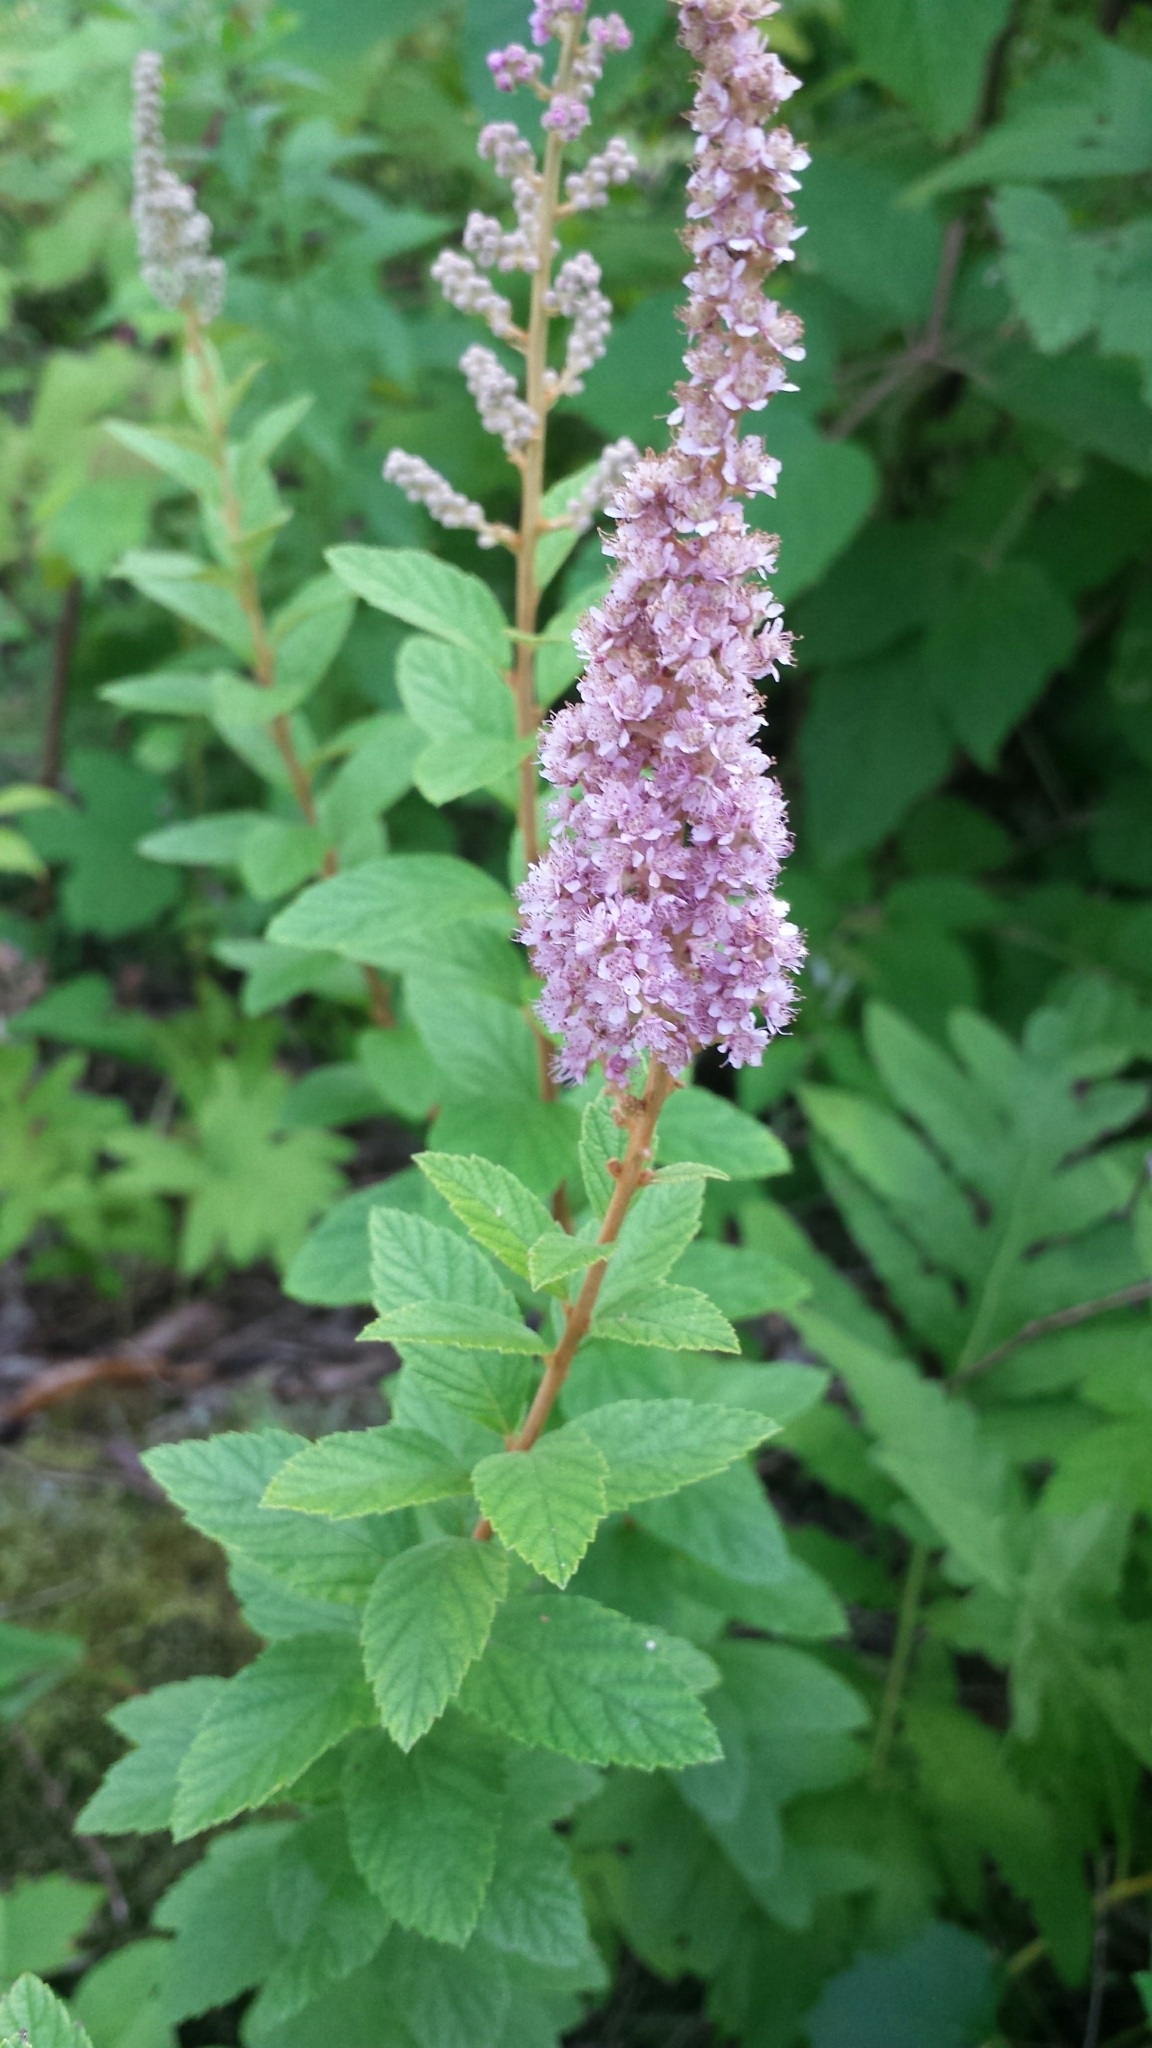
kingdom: Plantae
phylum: Tracheophyta
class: Magnoliopsida
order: Rosales
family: Rosaceae
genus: Spiraea
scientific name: Spiraea tomentosa
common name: Hardhack
